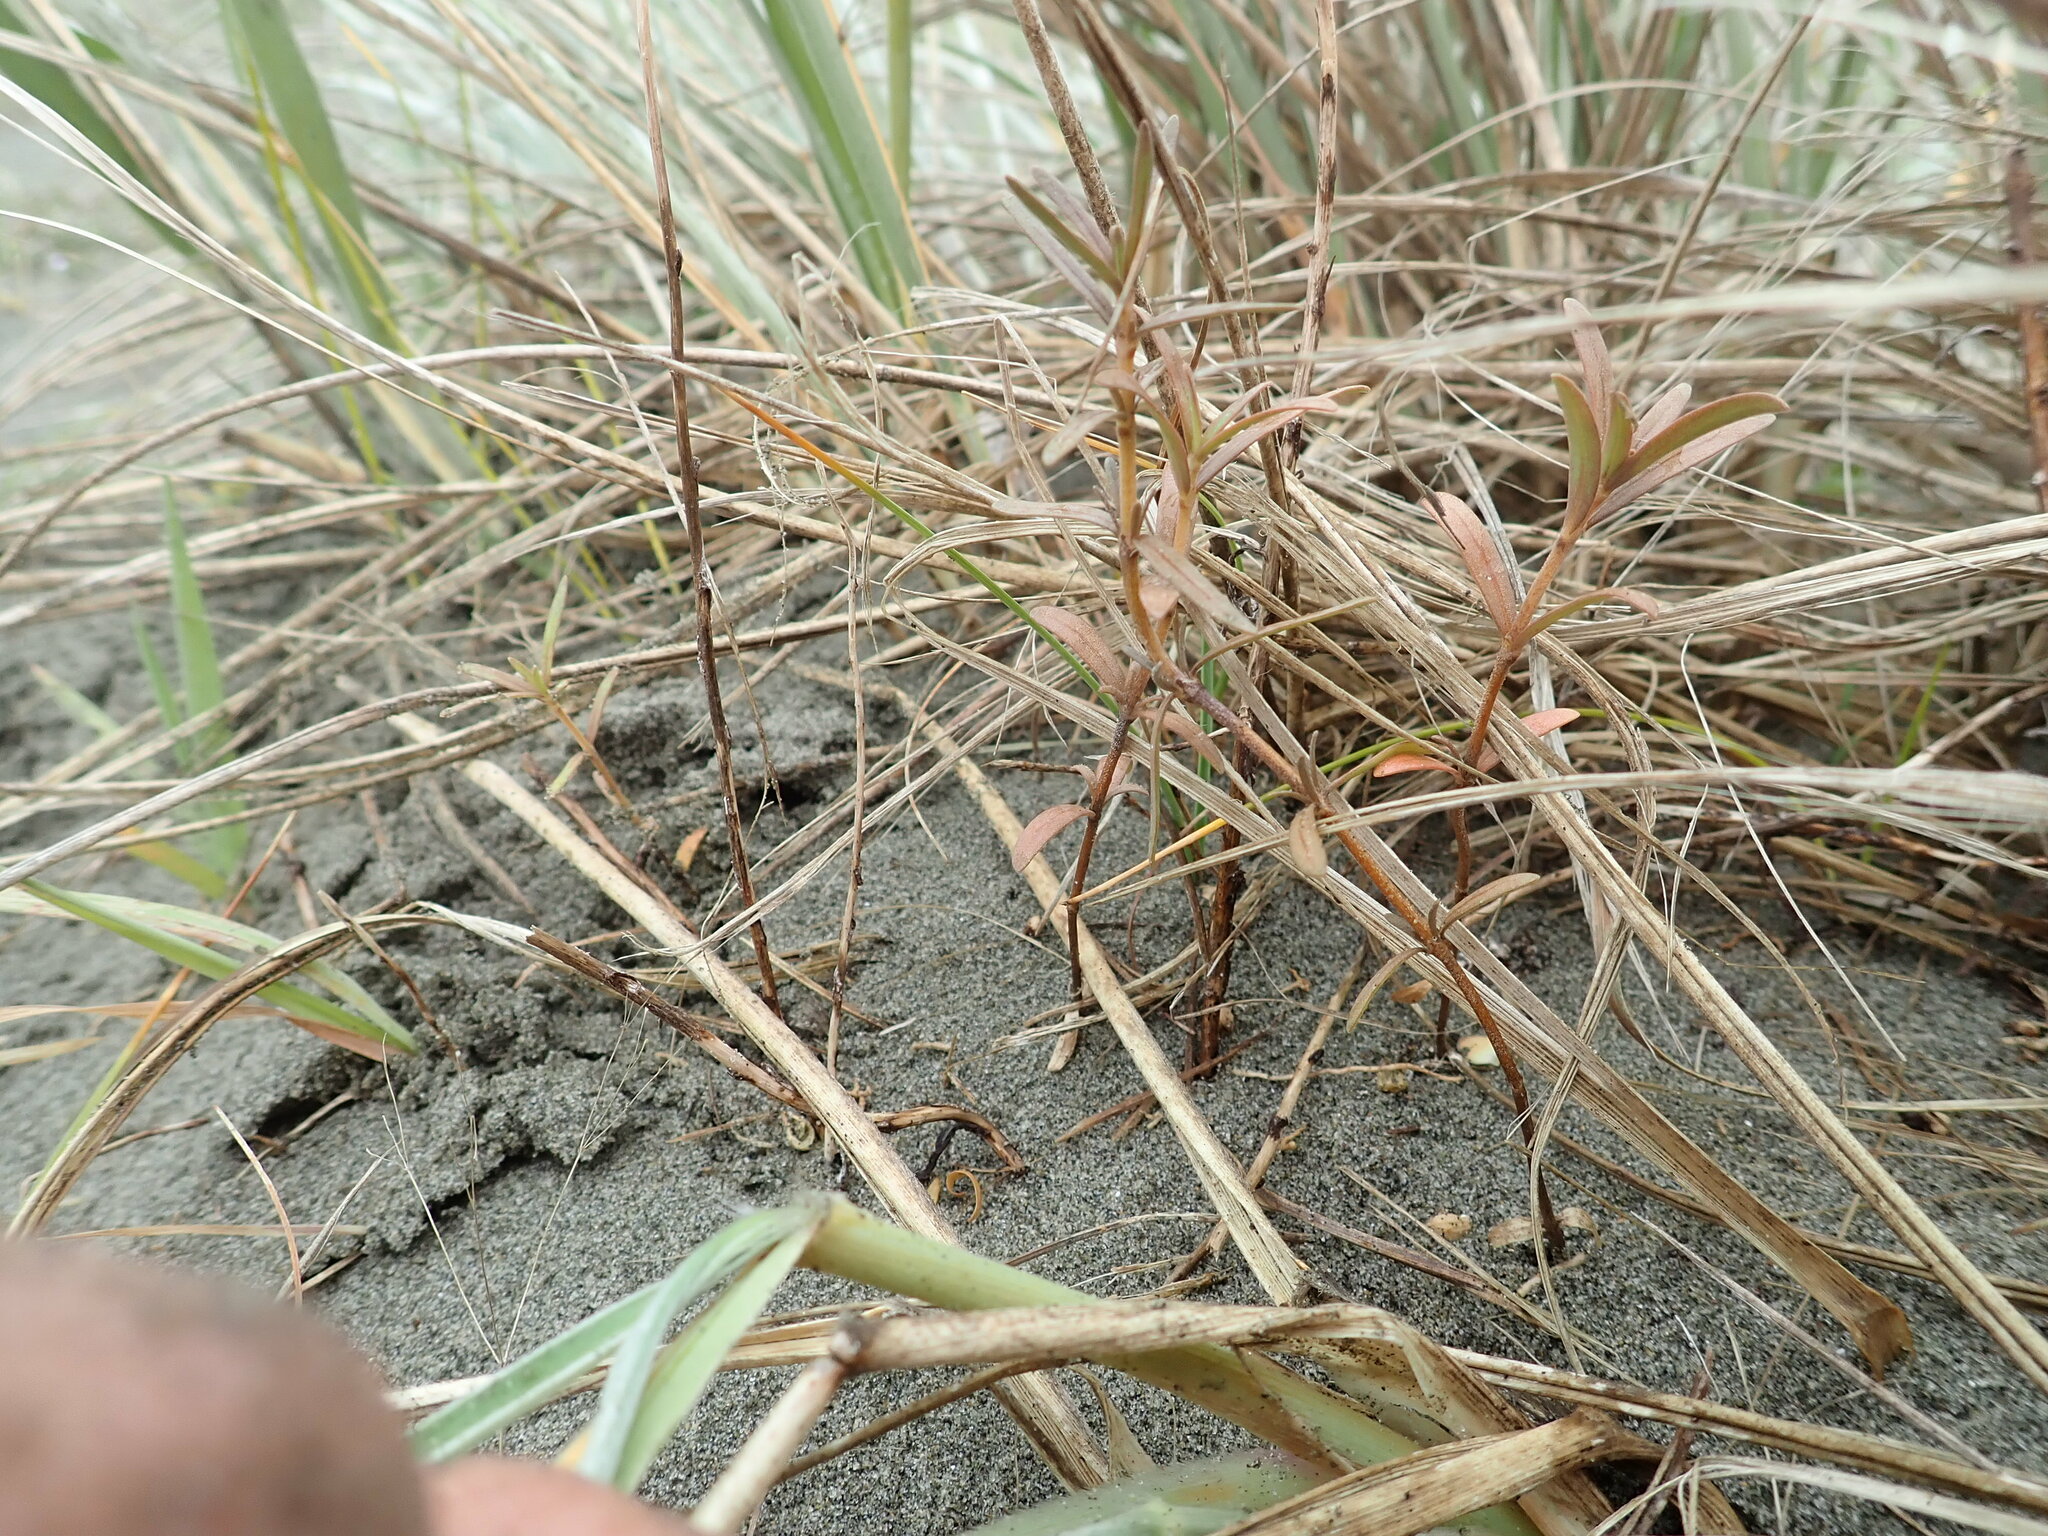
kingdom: Plantae
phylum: Tracheophyta
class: Magnoliopsida
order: Gentianales
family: Rubiaceae
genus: Coprosma
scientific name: Coprosma acerosa
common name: Sand coprosma
